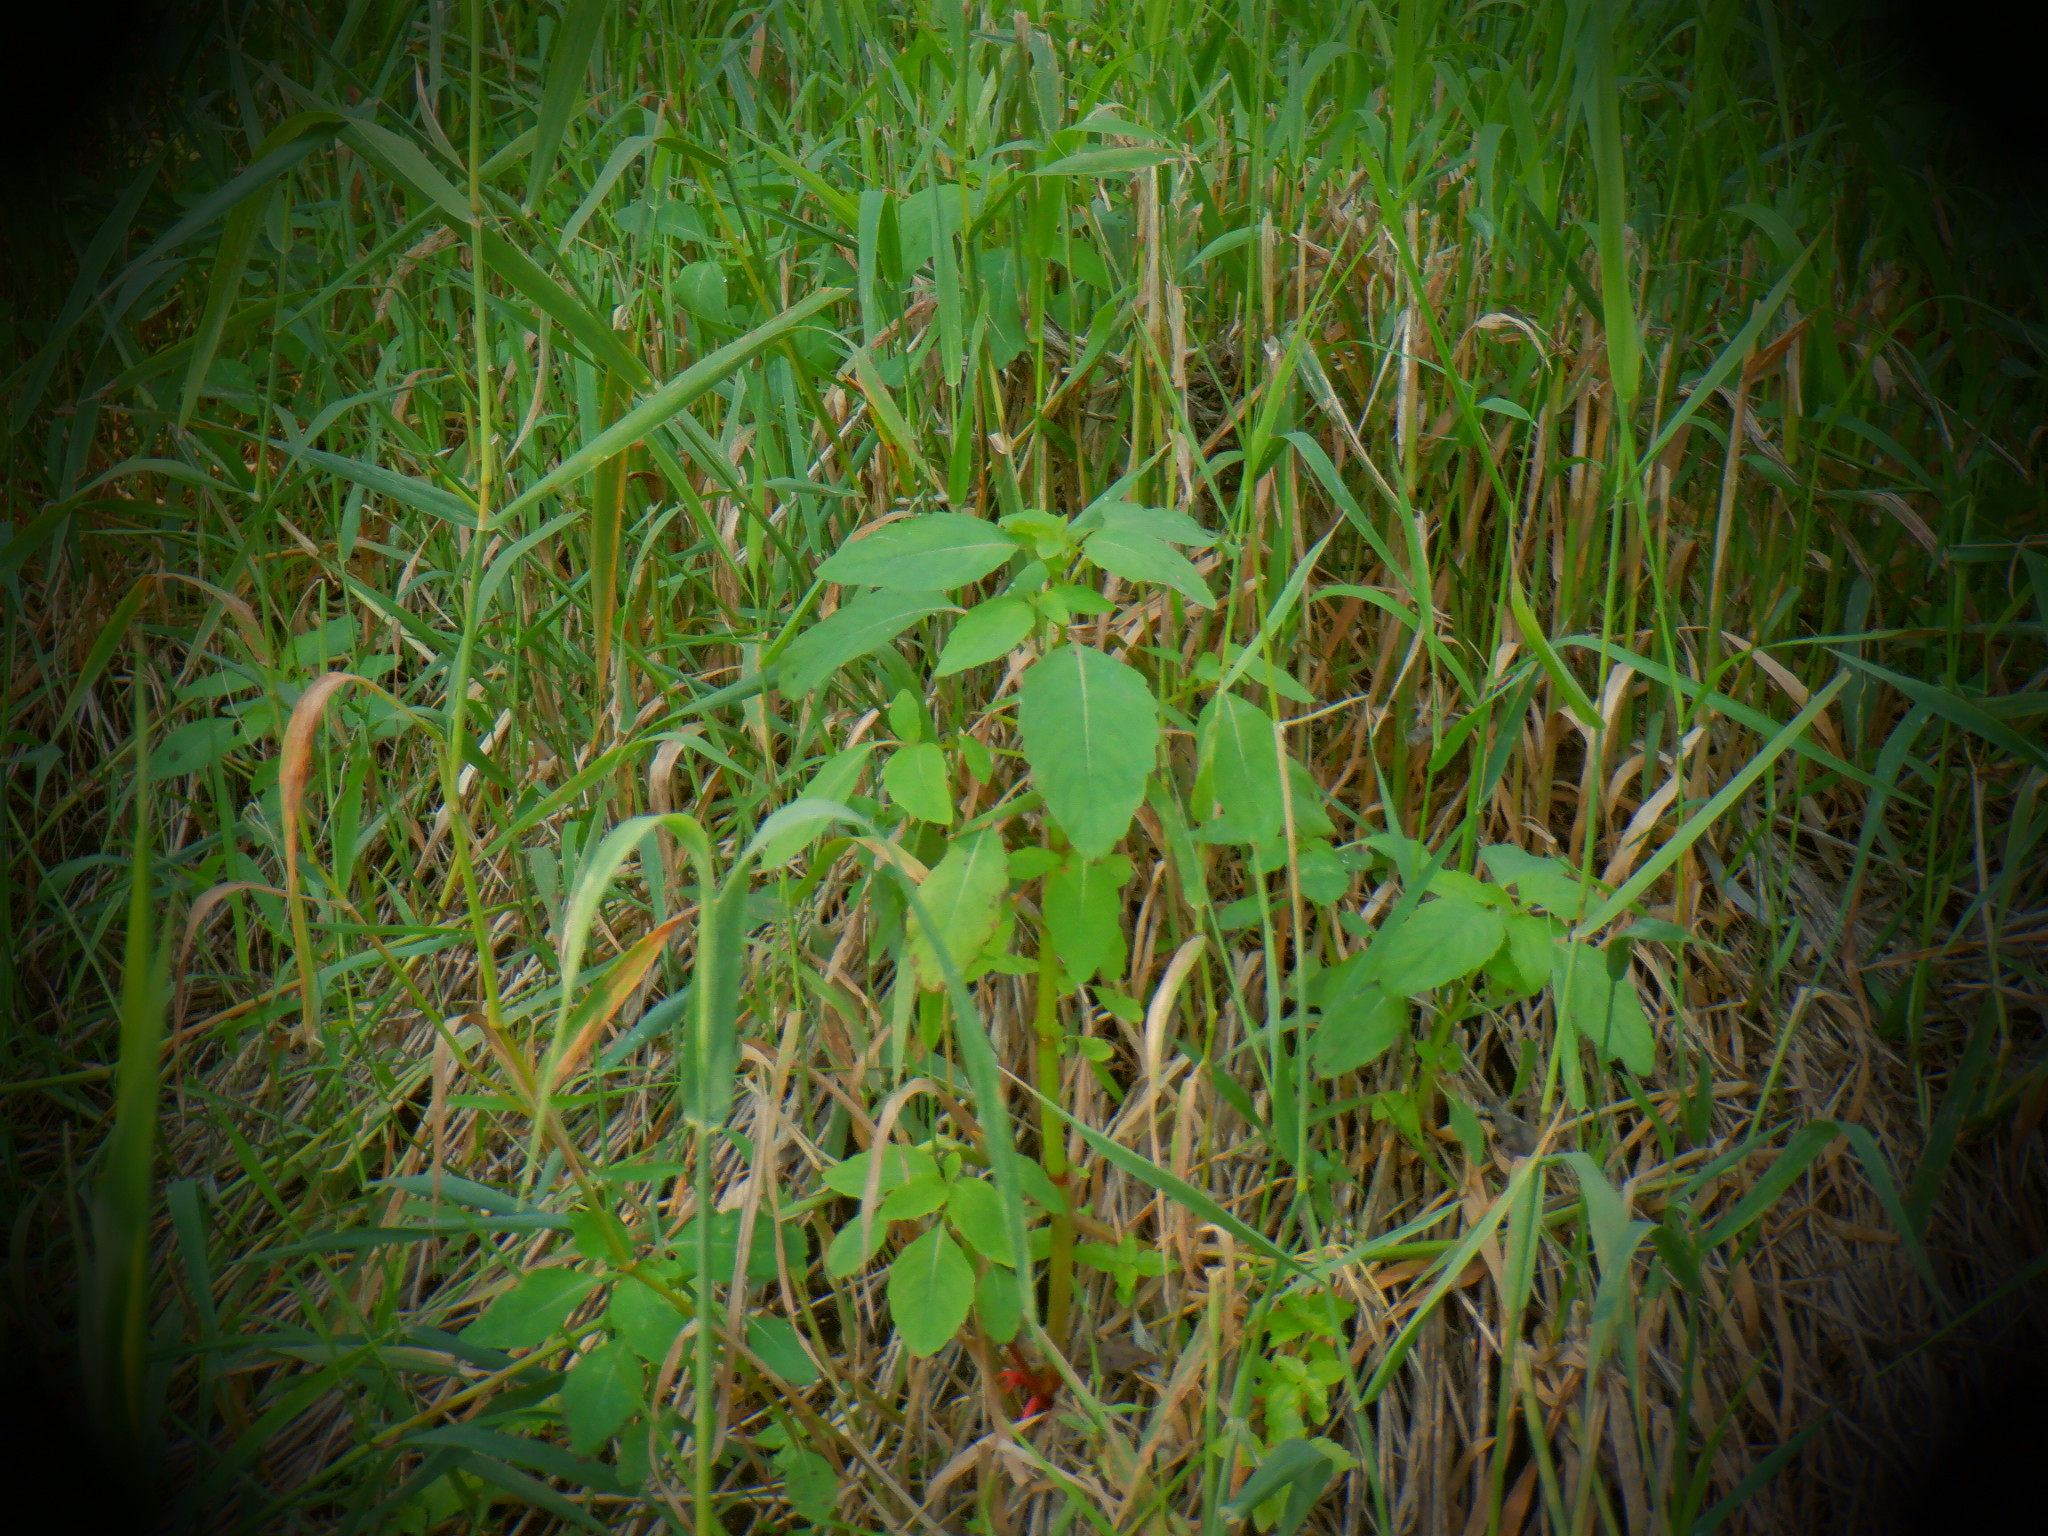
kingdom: Plantae
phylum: Tracheophyta
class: Magnoliopsida
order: Ericales
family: Balsaminaceae
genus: Impatiens
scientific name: Impatiens capensis
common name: Orange balsam
